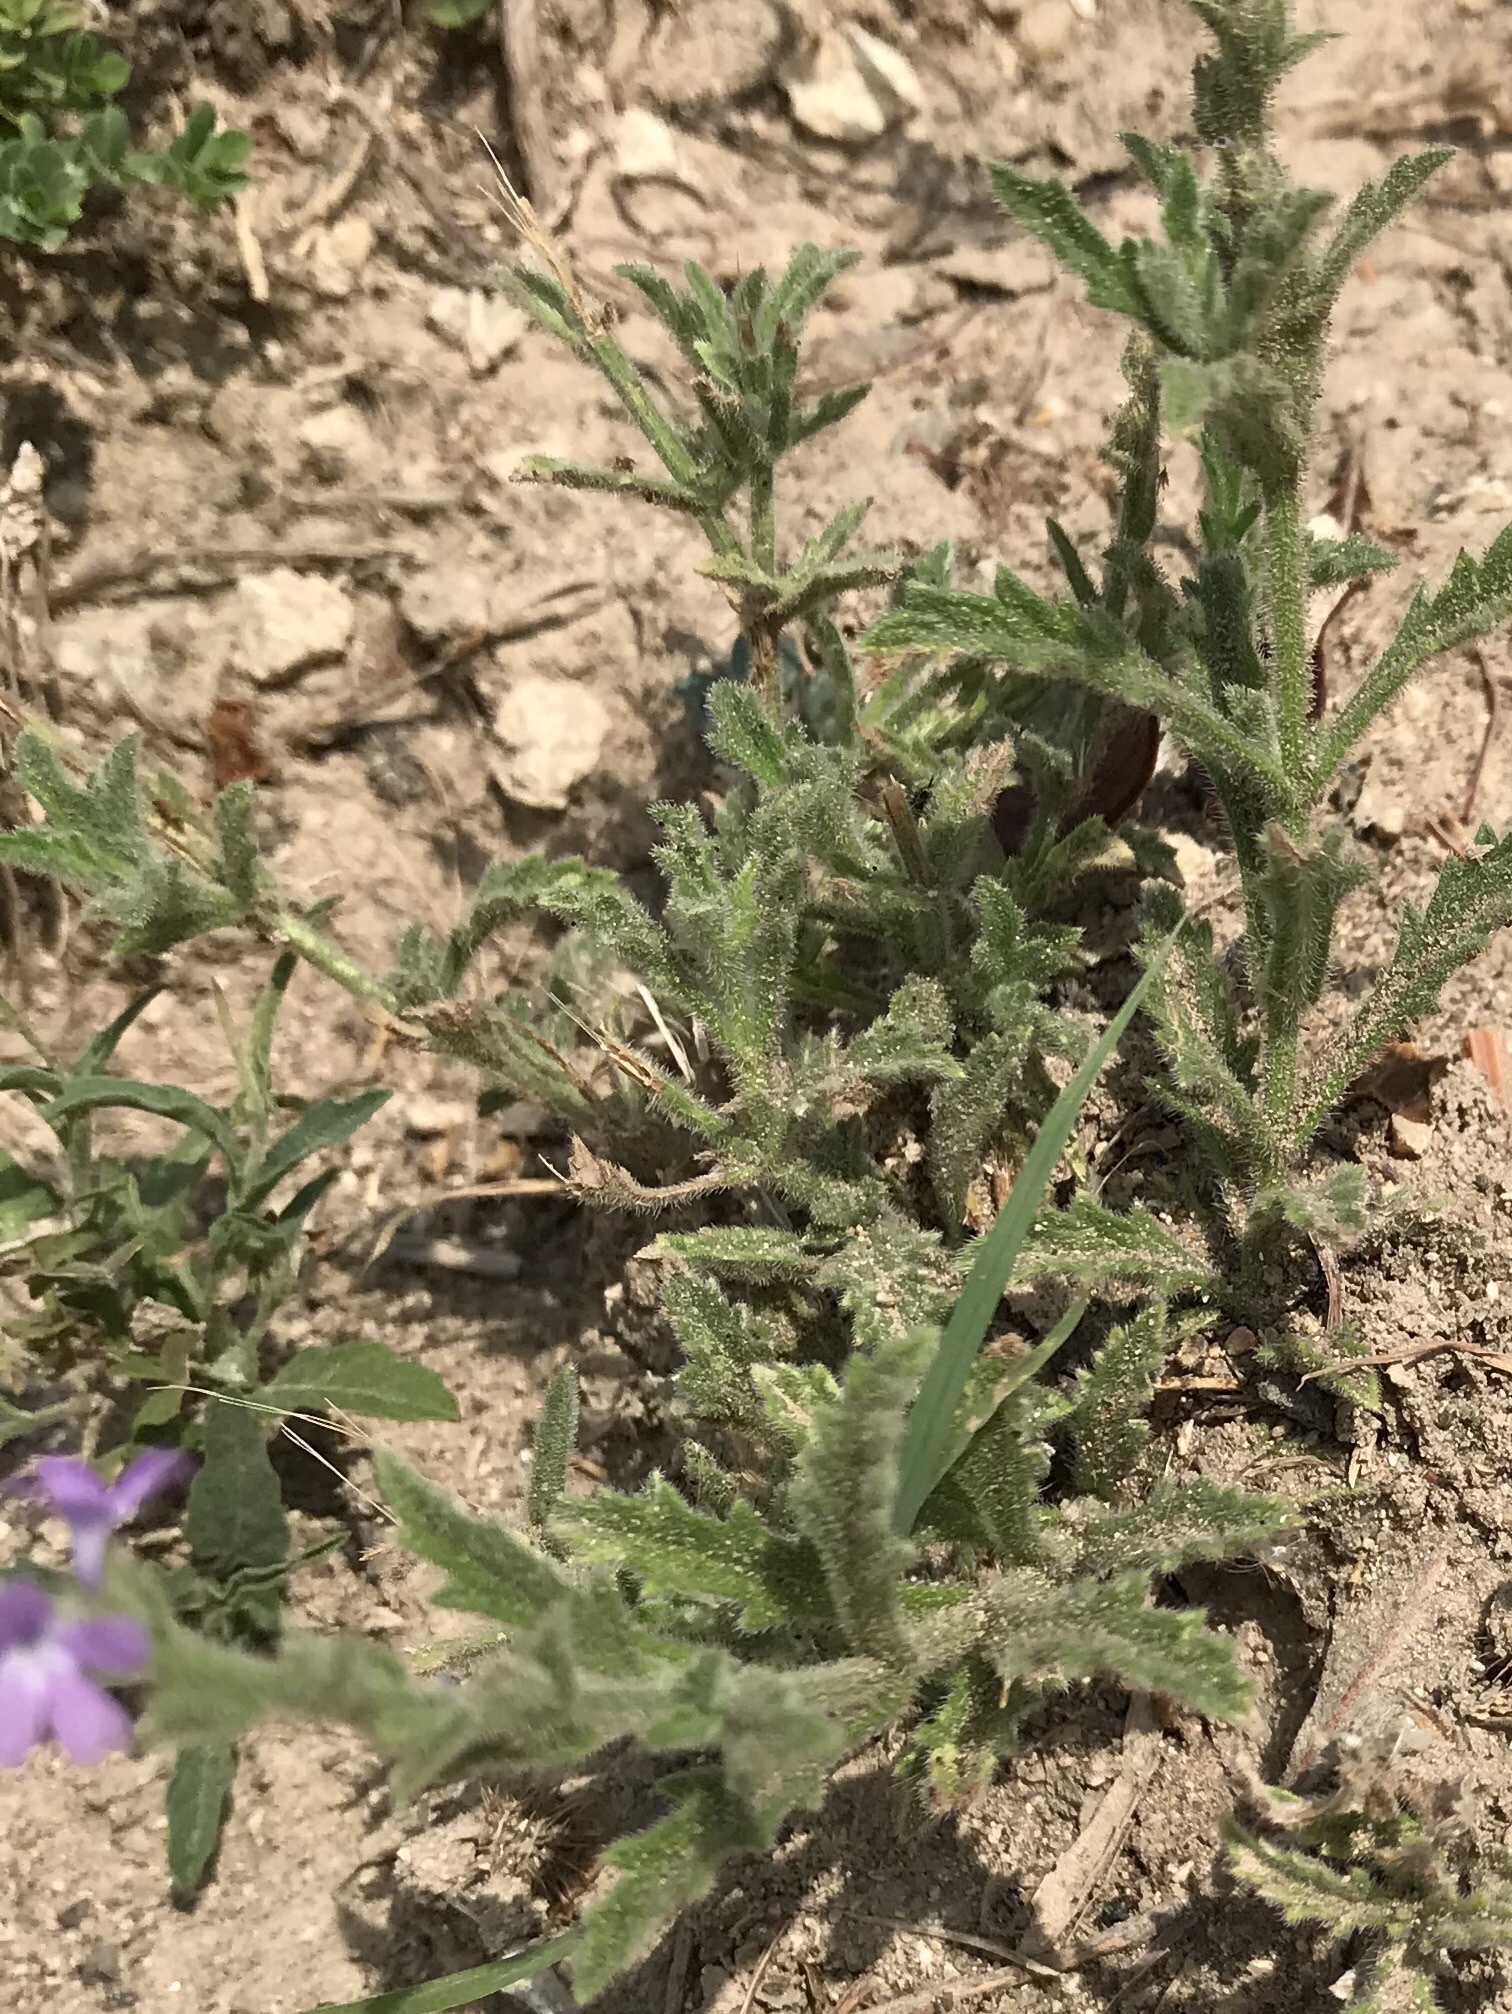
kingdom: Plantae
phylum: Tracheophyta
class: Magnoliopsida
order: Lamiales
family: Verbenaceae
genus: Verbena
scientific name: Verbena canescens
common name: Gray vervain
